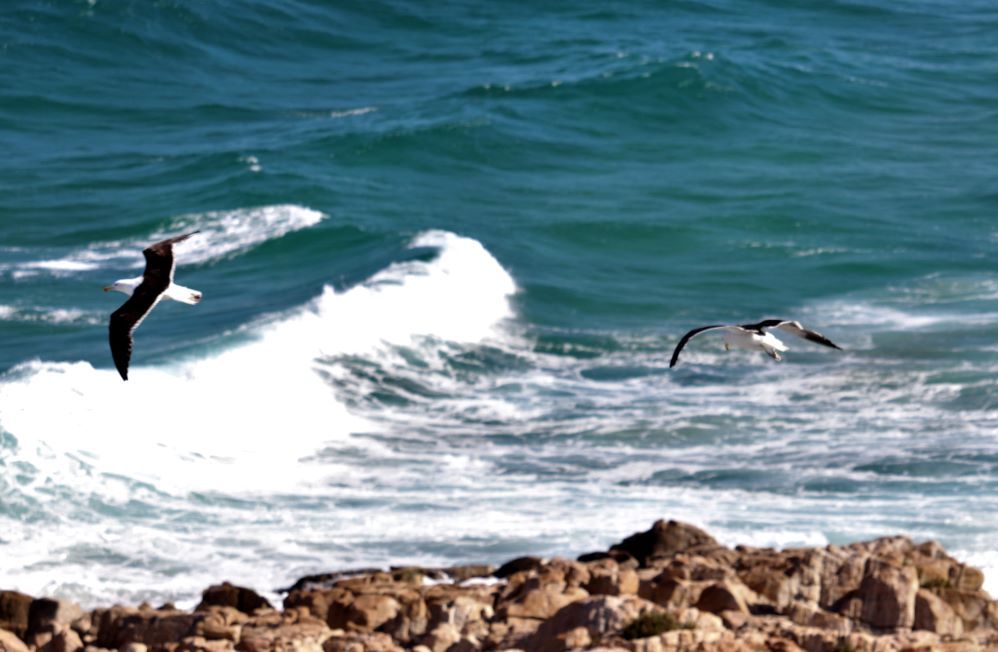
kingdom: Animalia
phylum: Chordata
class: Aves
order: Charadriiformes
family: Laridae
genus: Larus
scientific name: Larus dominicanus
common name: Kelp gull
